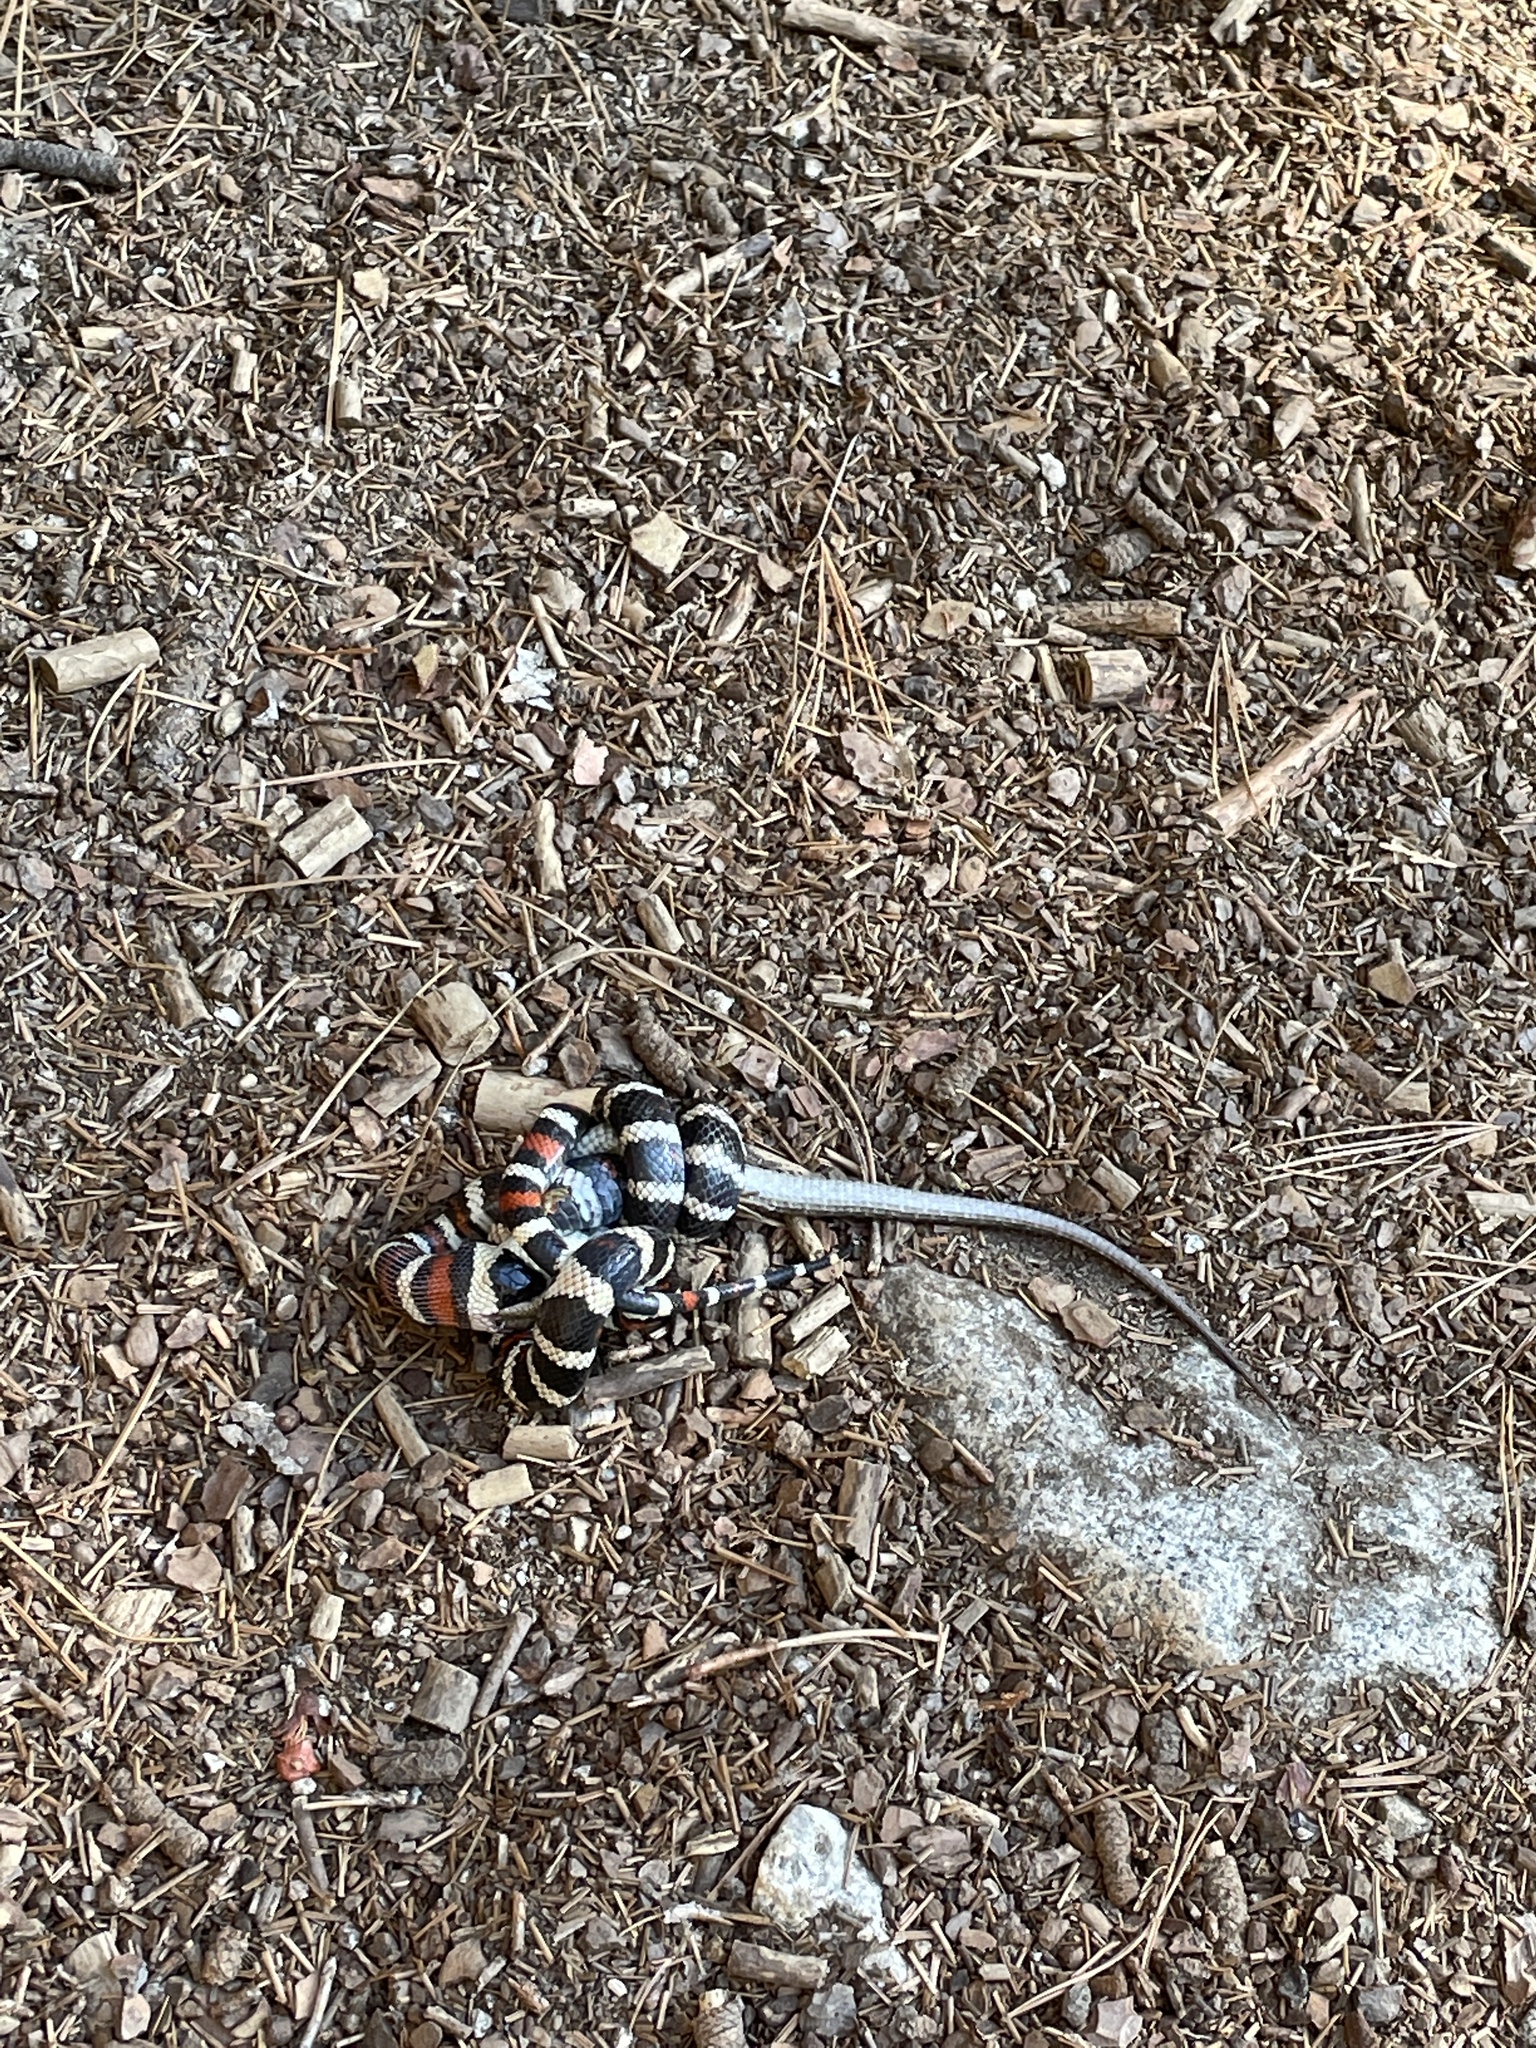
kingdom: Animalia
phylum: Chordata
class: Squamata
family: Colubridae
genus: Lampropeltis
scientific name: Lampropeltis zonata
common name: California mountain kingsnake
